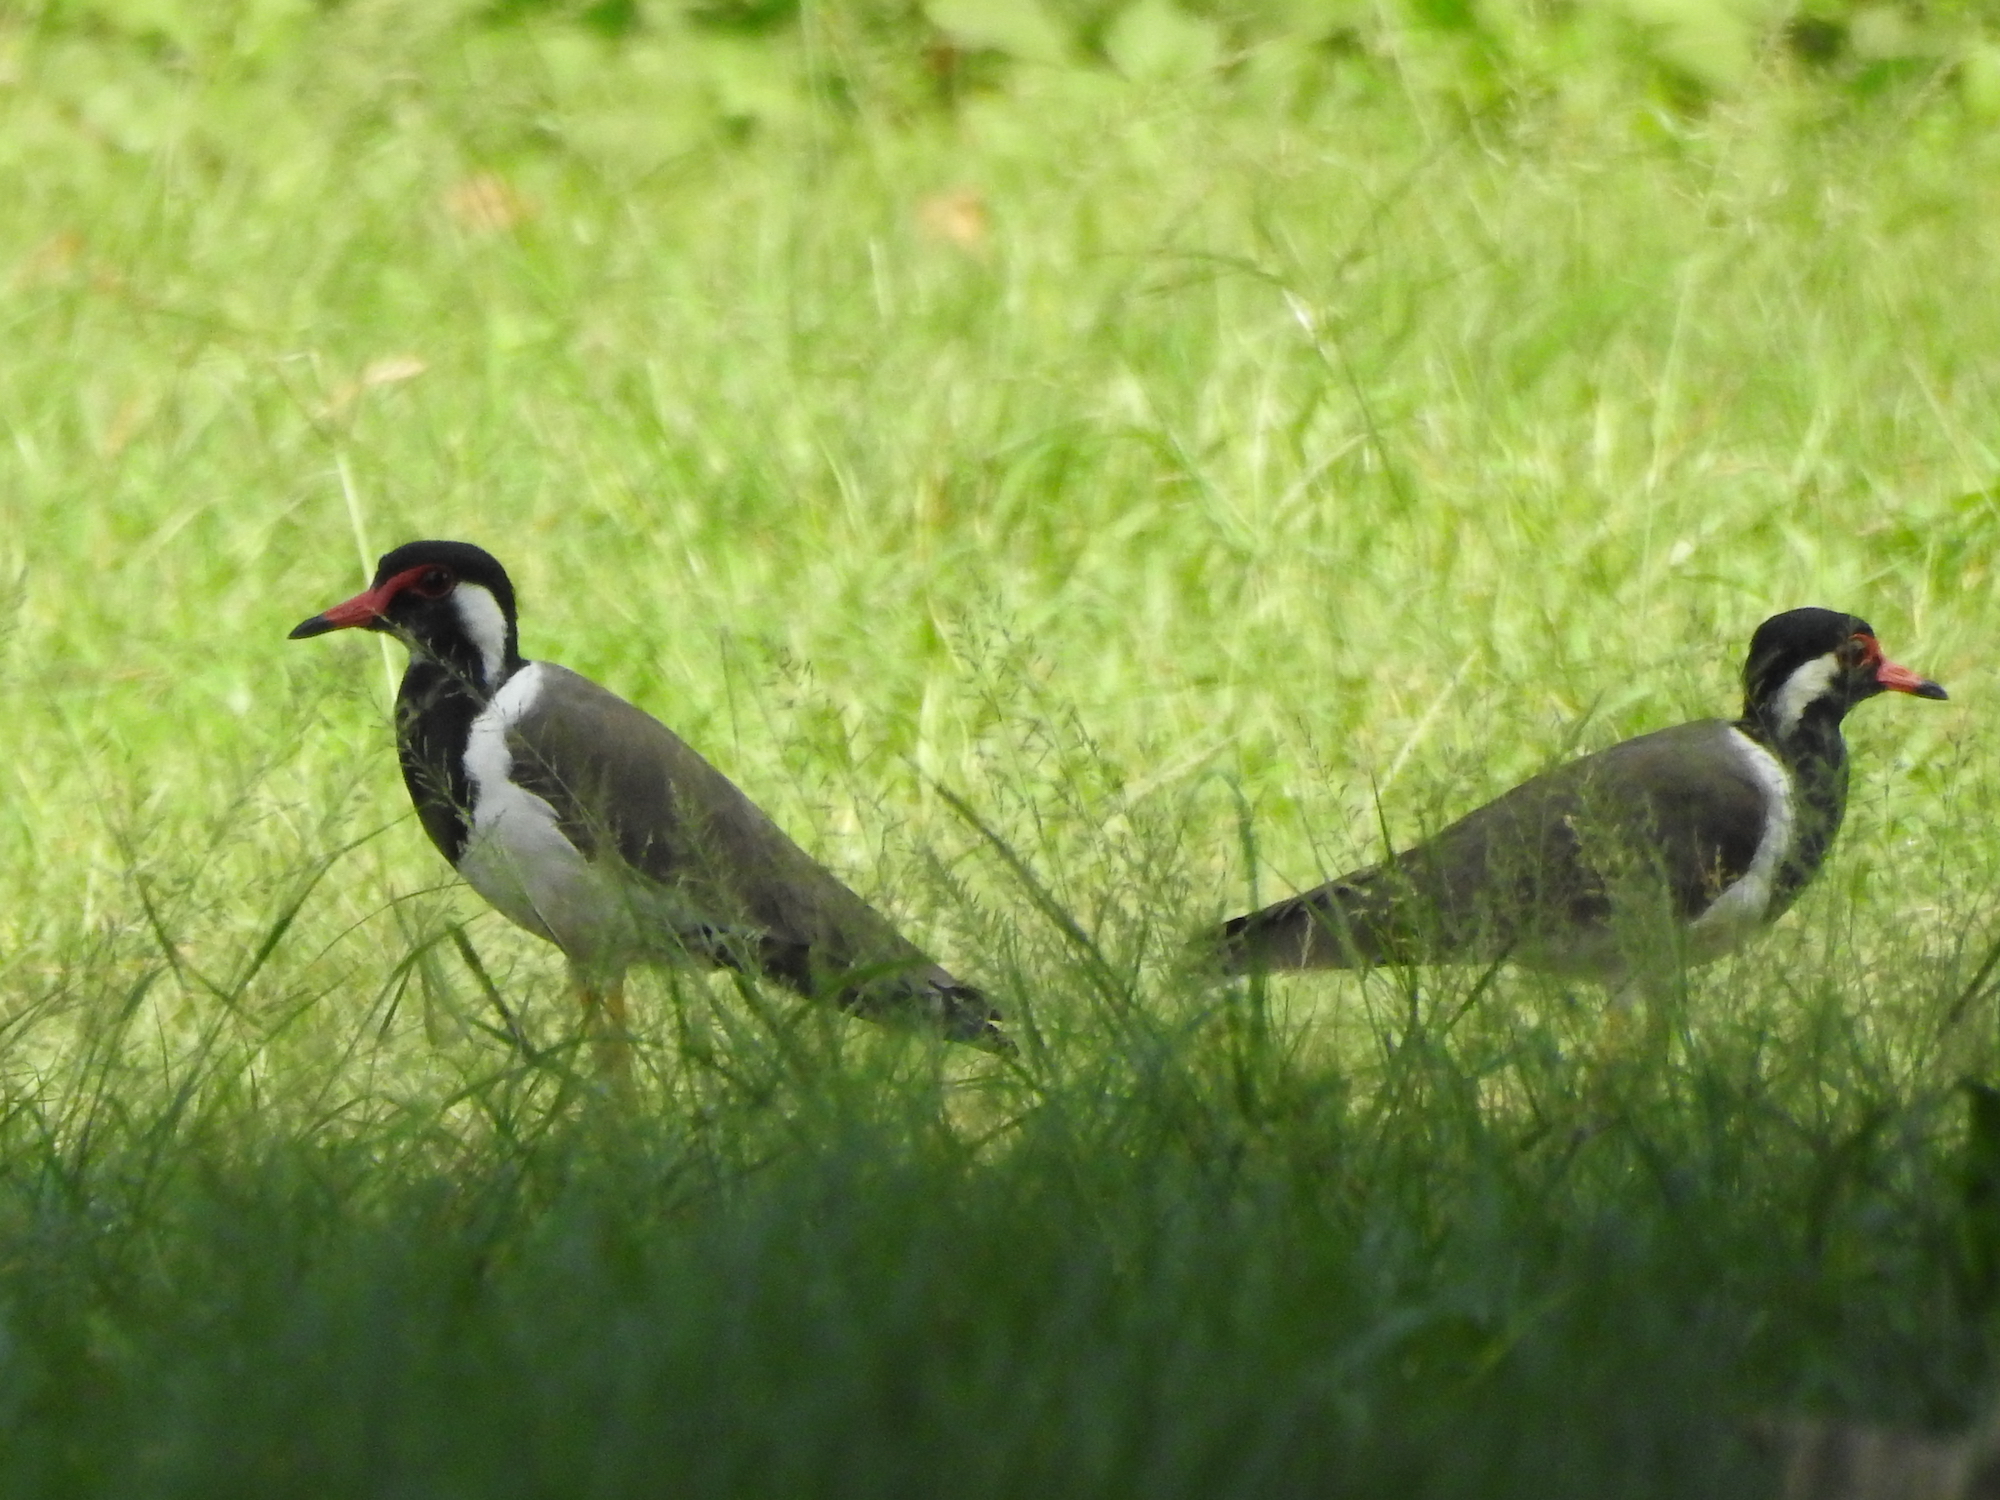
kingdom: Animalia
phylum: Chordata
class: Aves
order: Charadriiformes
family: Charadriidae
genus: Vanellus
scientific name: Vanellus indicus
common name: Red-wattled lapwing
